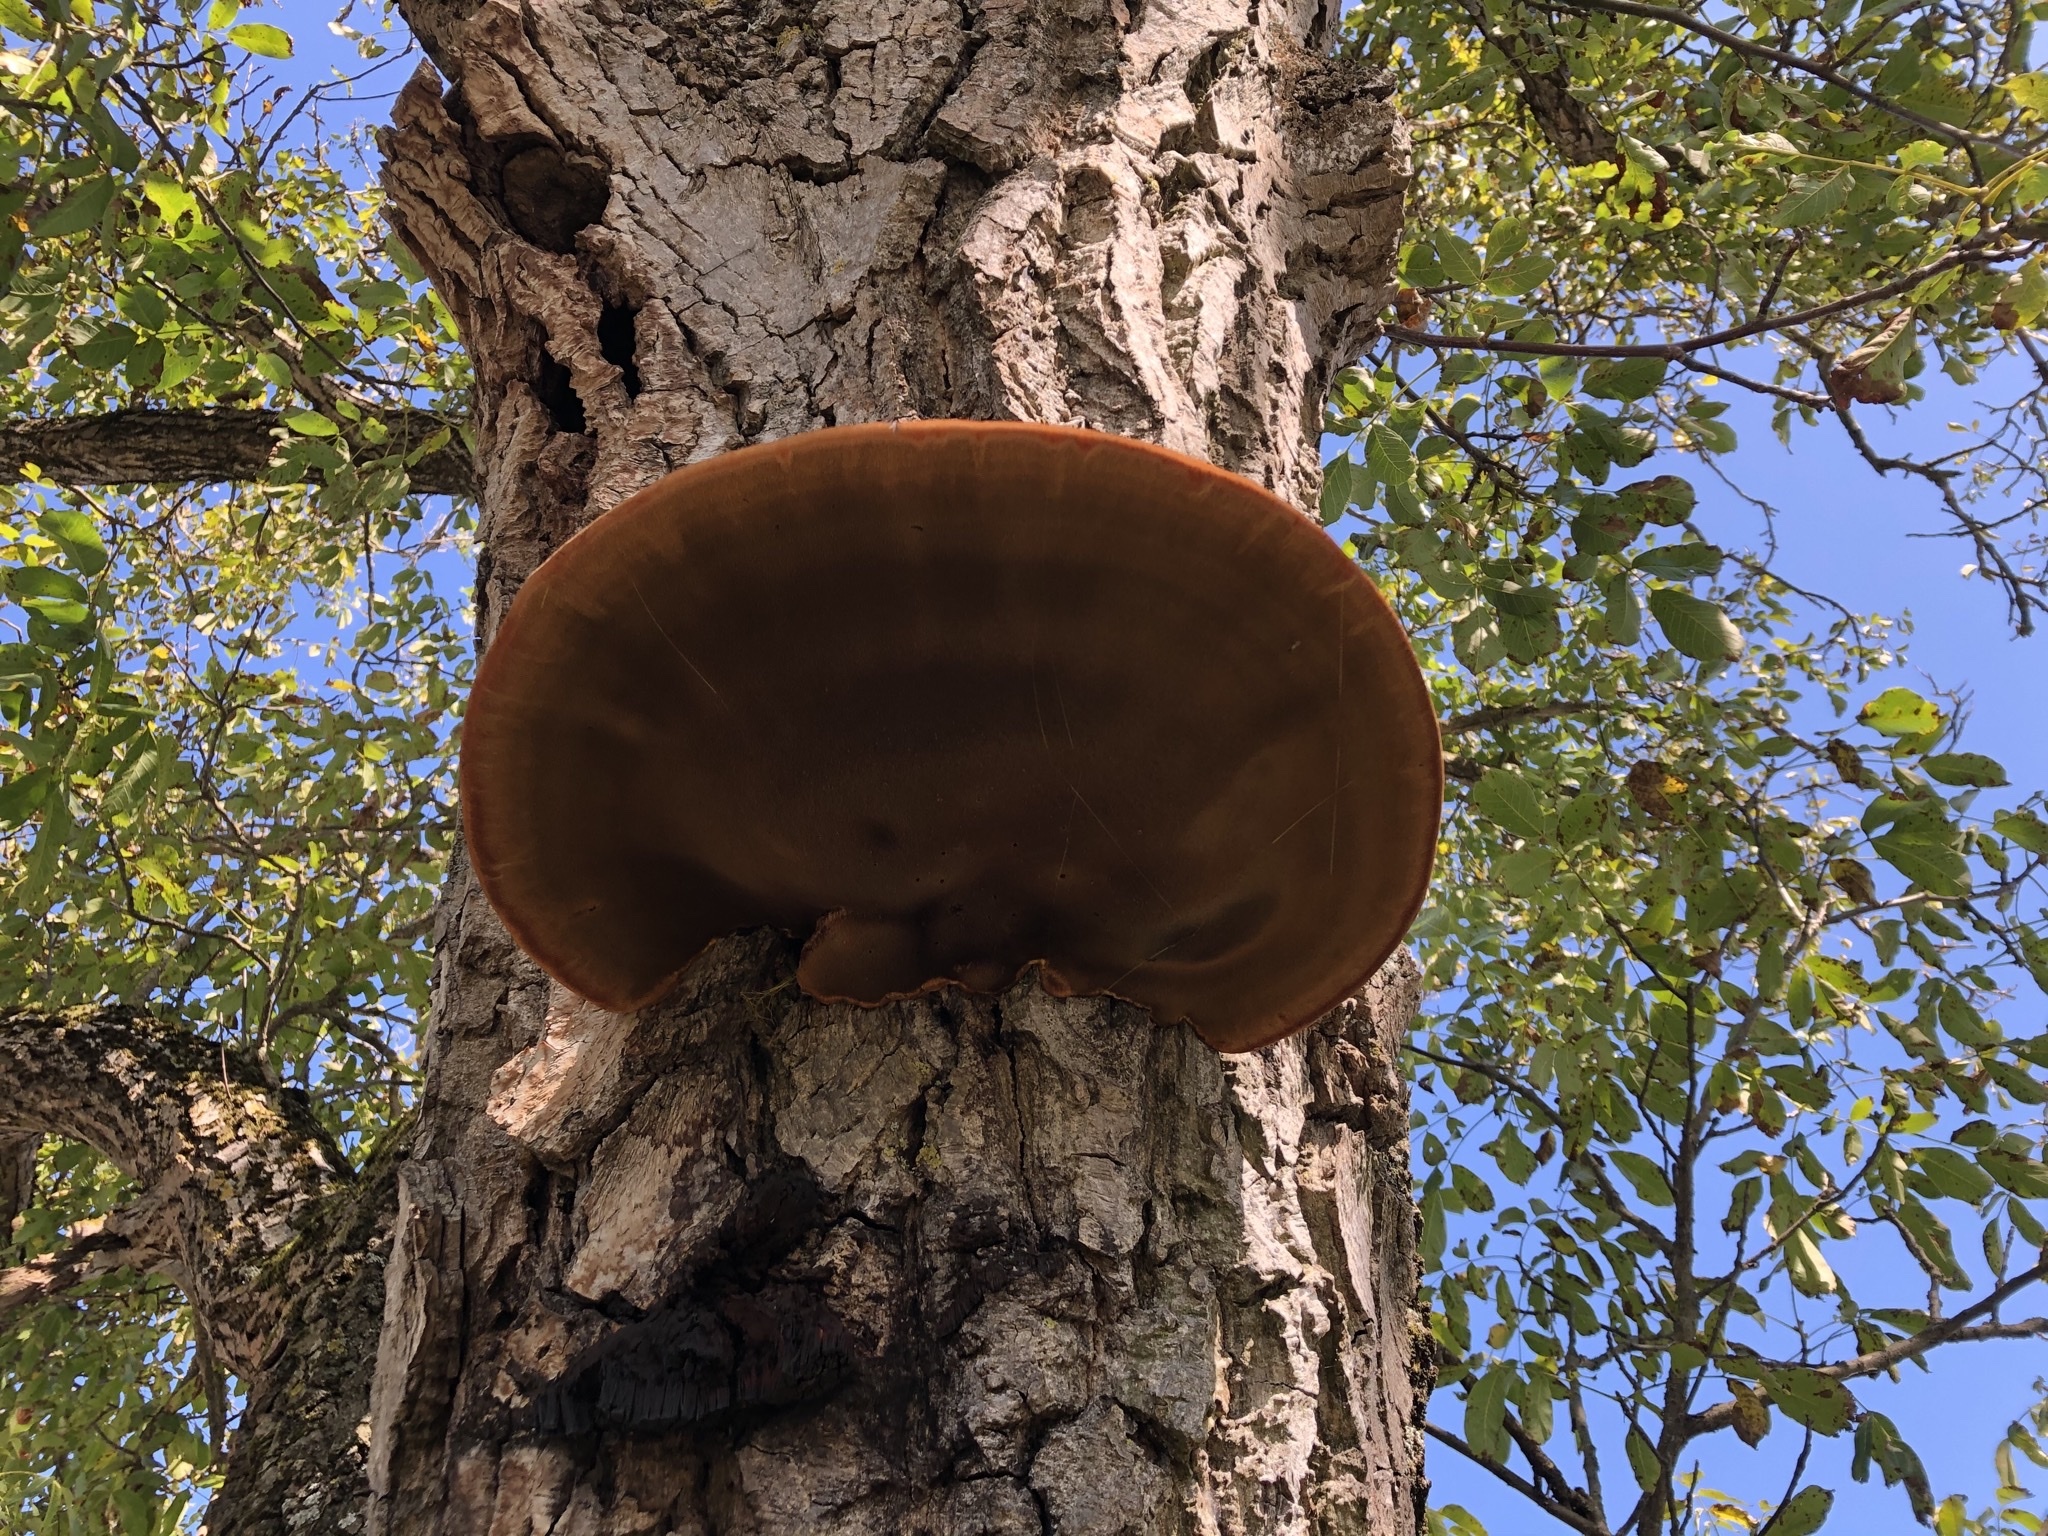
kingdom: Fungi
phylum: Basidiomycota
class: Agaricomycetes
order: Hymenochaetales
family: Hymenochaetaceae
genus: Inonotus
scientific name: Inonotus hispidus
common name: Shaggy bracket
